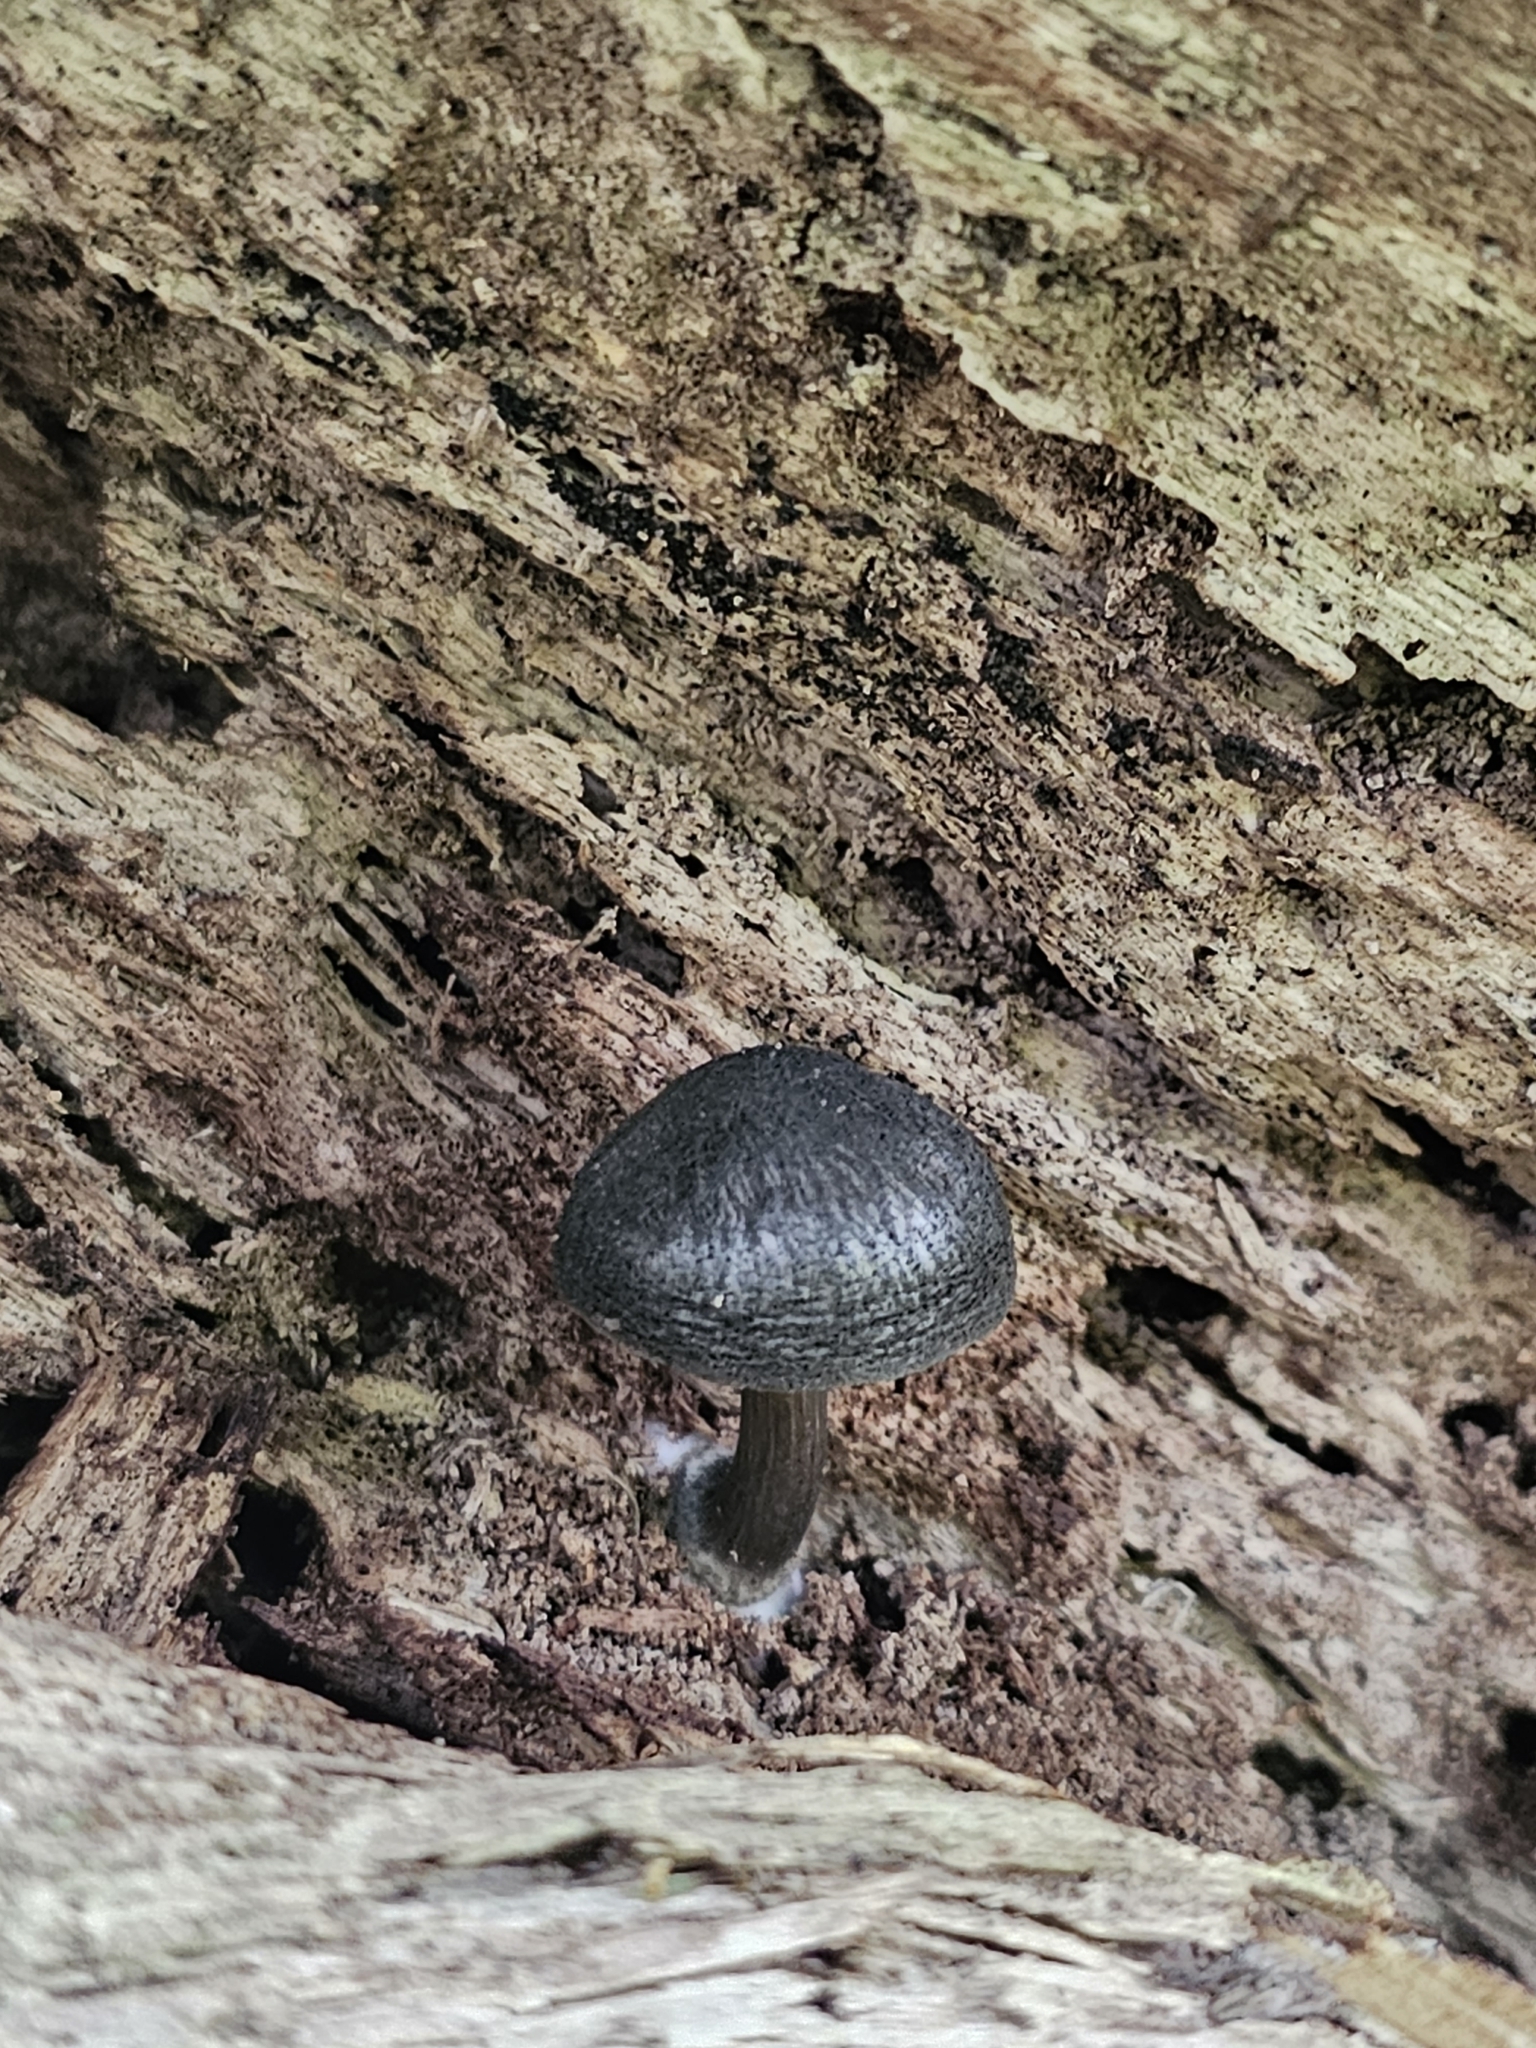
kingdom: Fungi
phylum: Basidiomycota
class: Agaricomycetes
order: Agaricales
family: Pluteaceae
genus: Pluteus
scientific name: Pluteus velutinornatus
